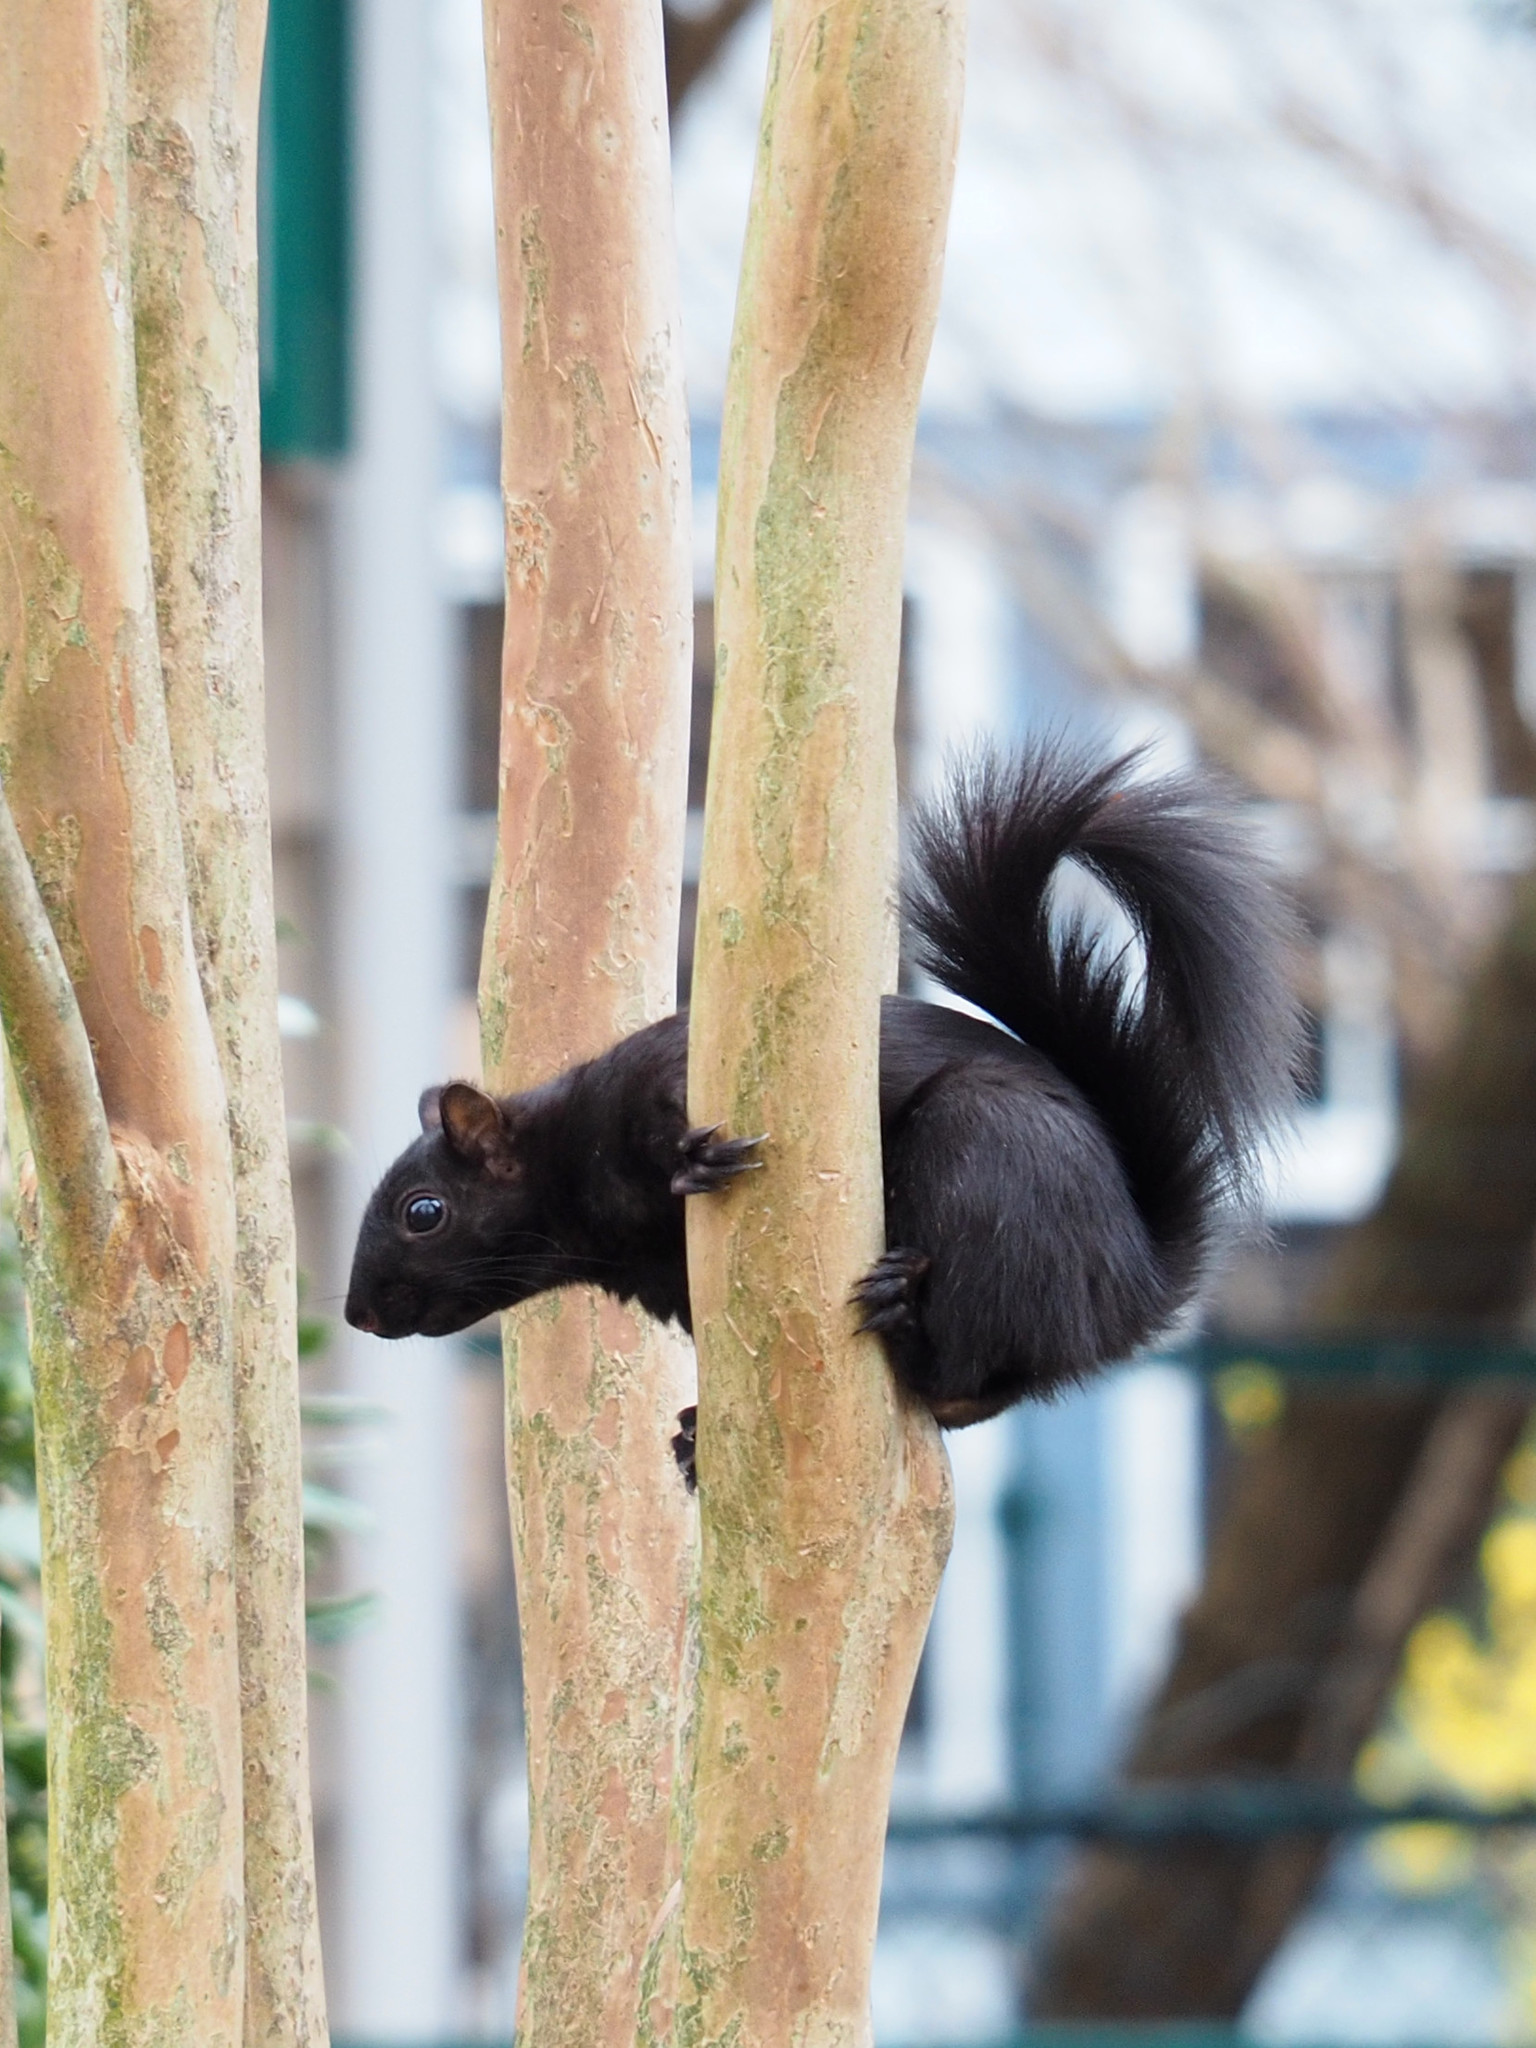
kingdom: Animalia
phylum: Chordata
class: Mammalia
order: Rodentia
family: Sciuridae
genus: Sciurus
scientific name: Sciurus carolinensis
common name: Eastern gray squirrel
